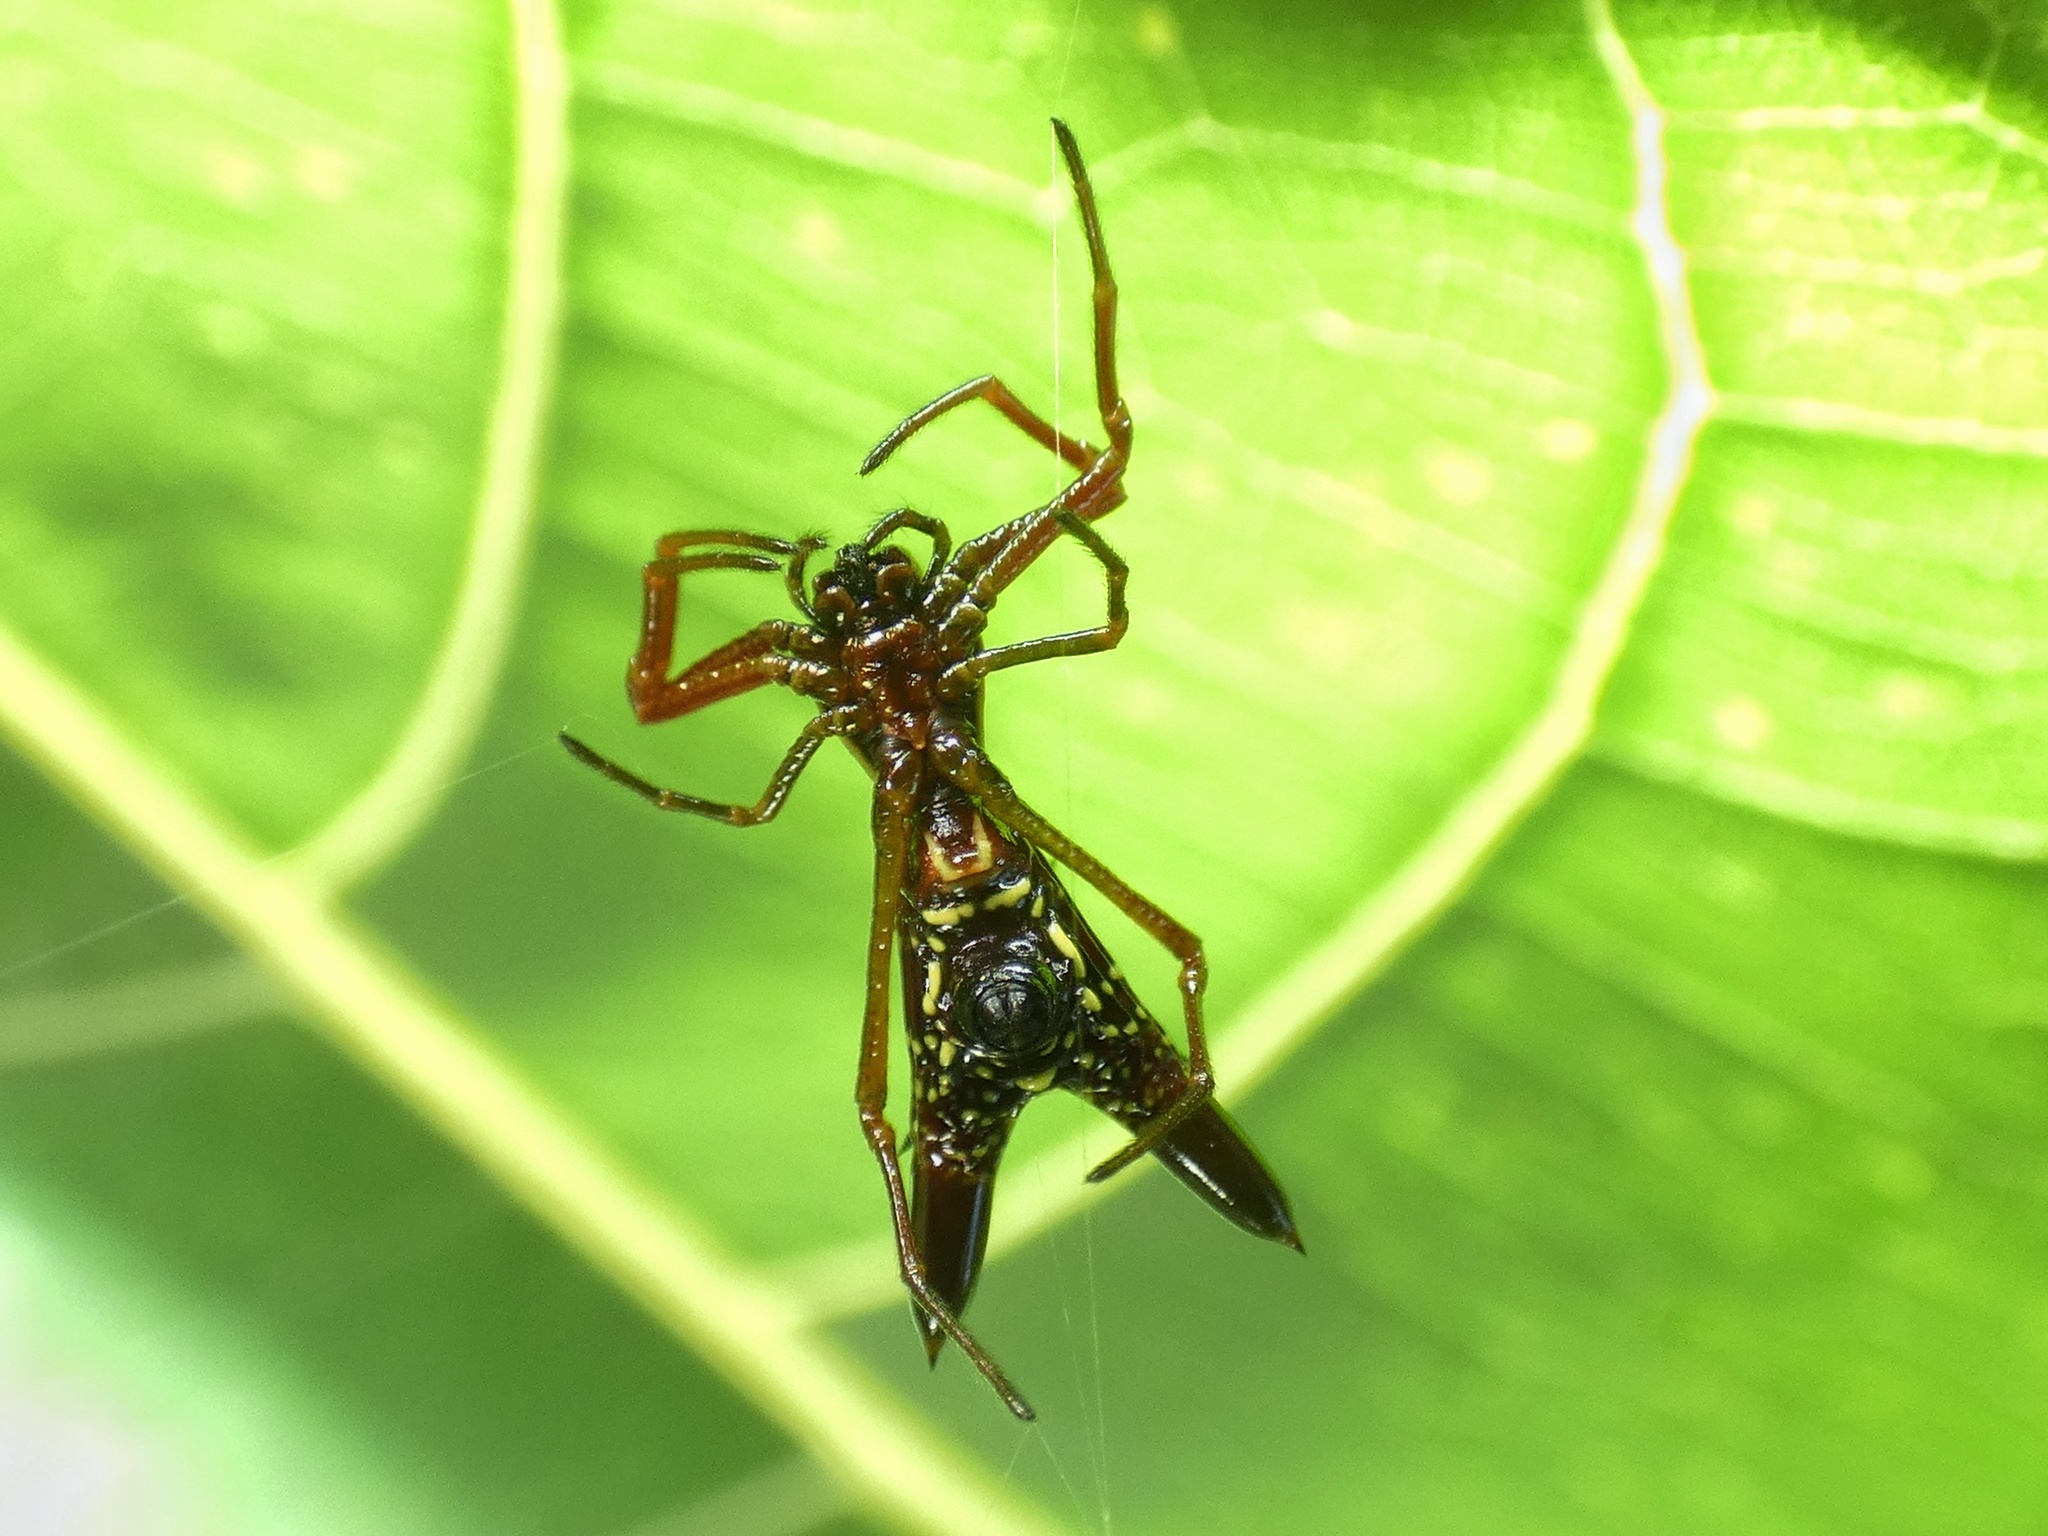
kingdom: Animalia
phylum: Arthropoda
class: Arachnida
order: Araneae
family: Araneidae
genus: Micrathena
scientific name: Micrathena sexspinosa
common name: Orb weavers
